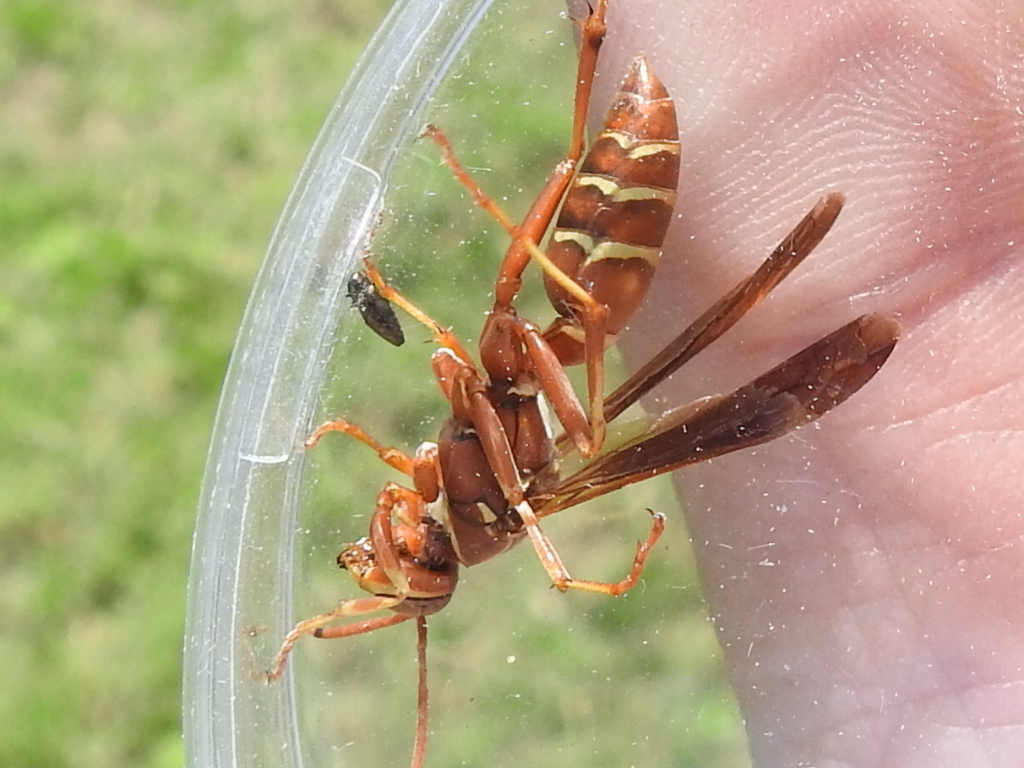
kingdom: Animalia
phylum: Arthropoda
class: Insecta
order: Hymenoptera
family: Eumenidae
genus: Polistes
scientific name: Polistes bellicosus
